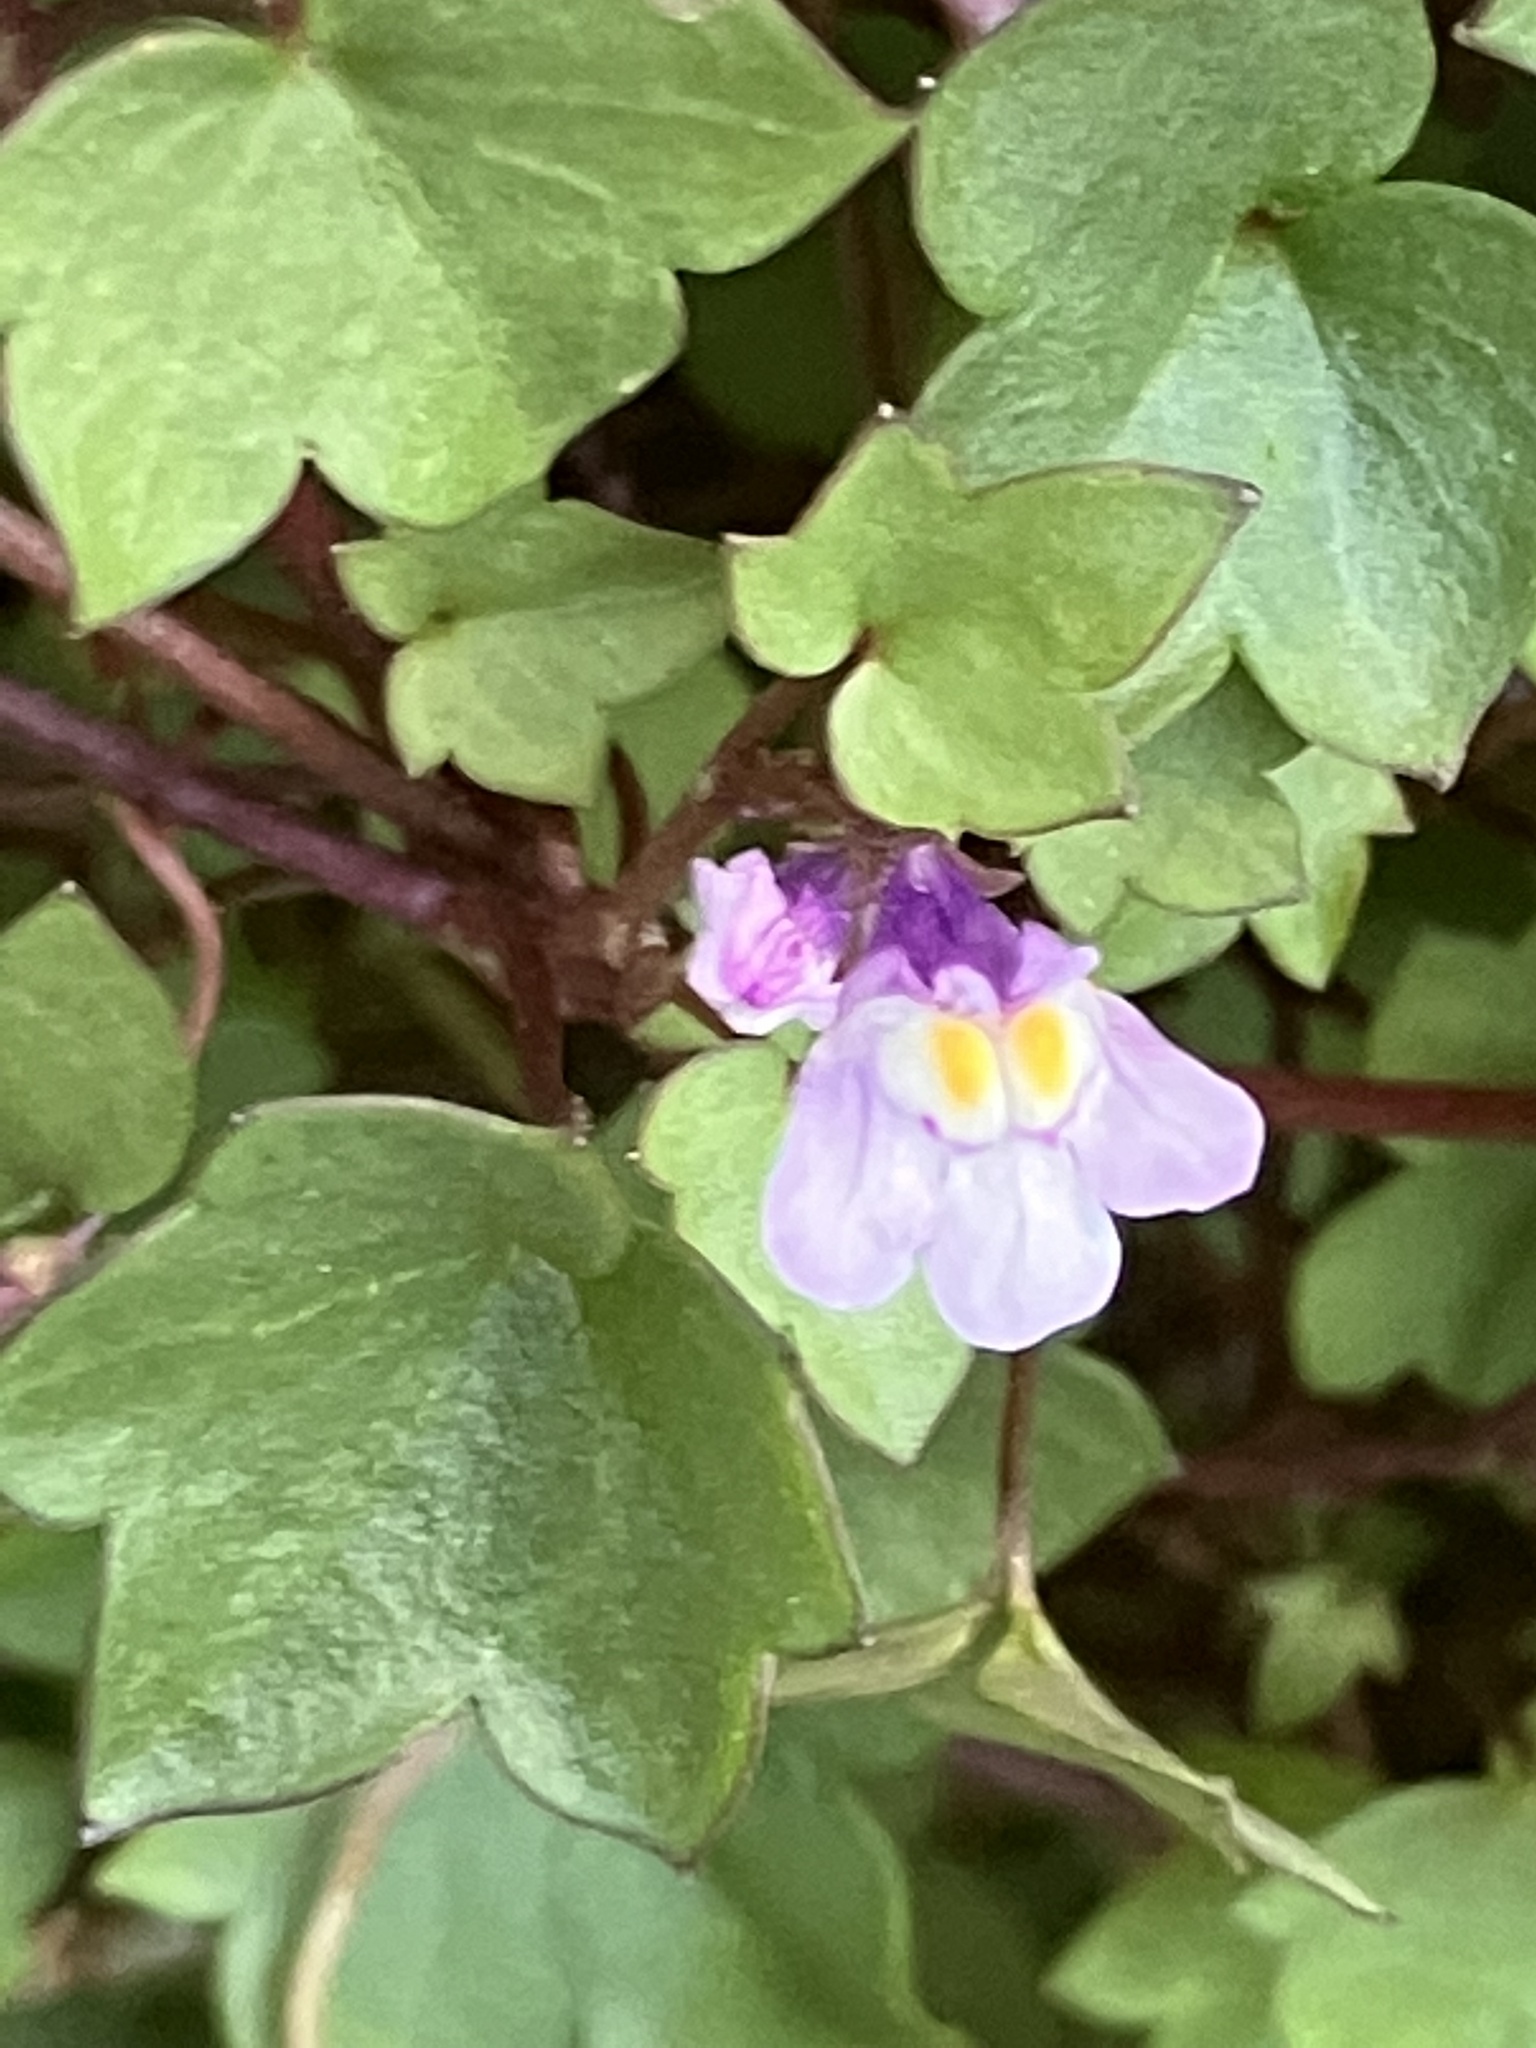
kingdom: Plantae
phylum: Tracheophyta
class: Magnoliopsida
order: Lamiales
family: Plantaginaceae
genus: Cymbalaria
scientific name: Cymbalaria muralis
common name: Ivy-leaved toadflax
